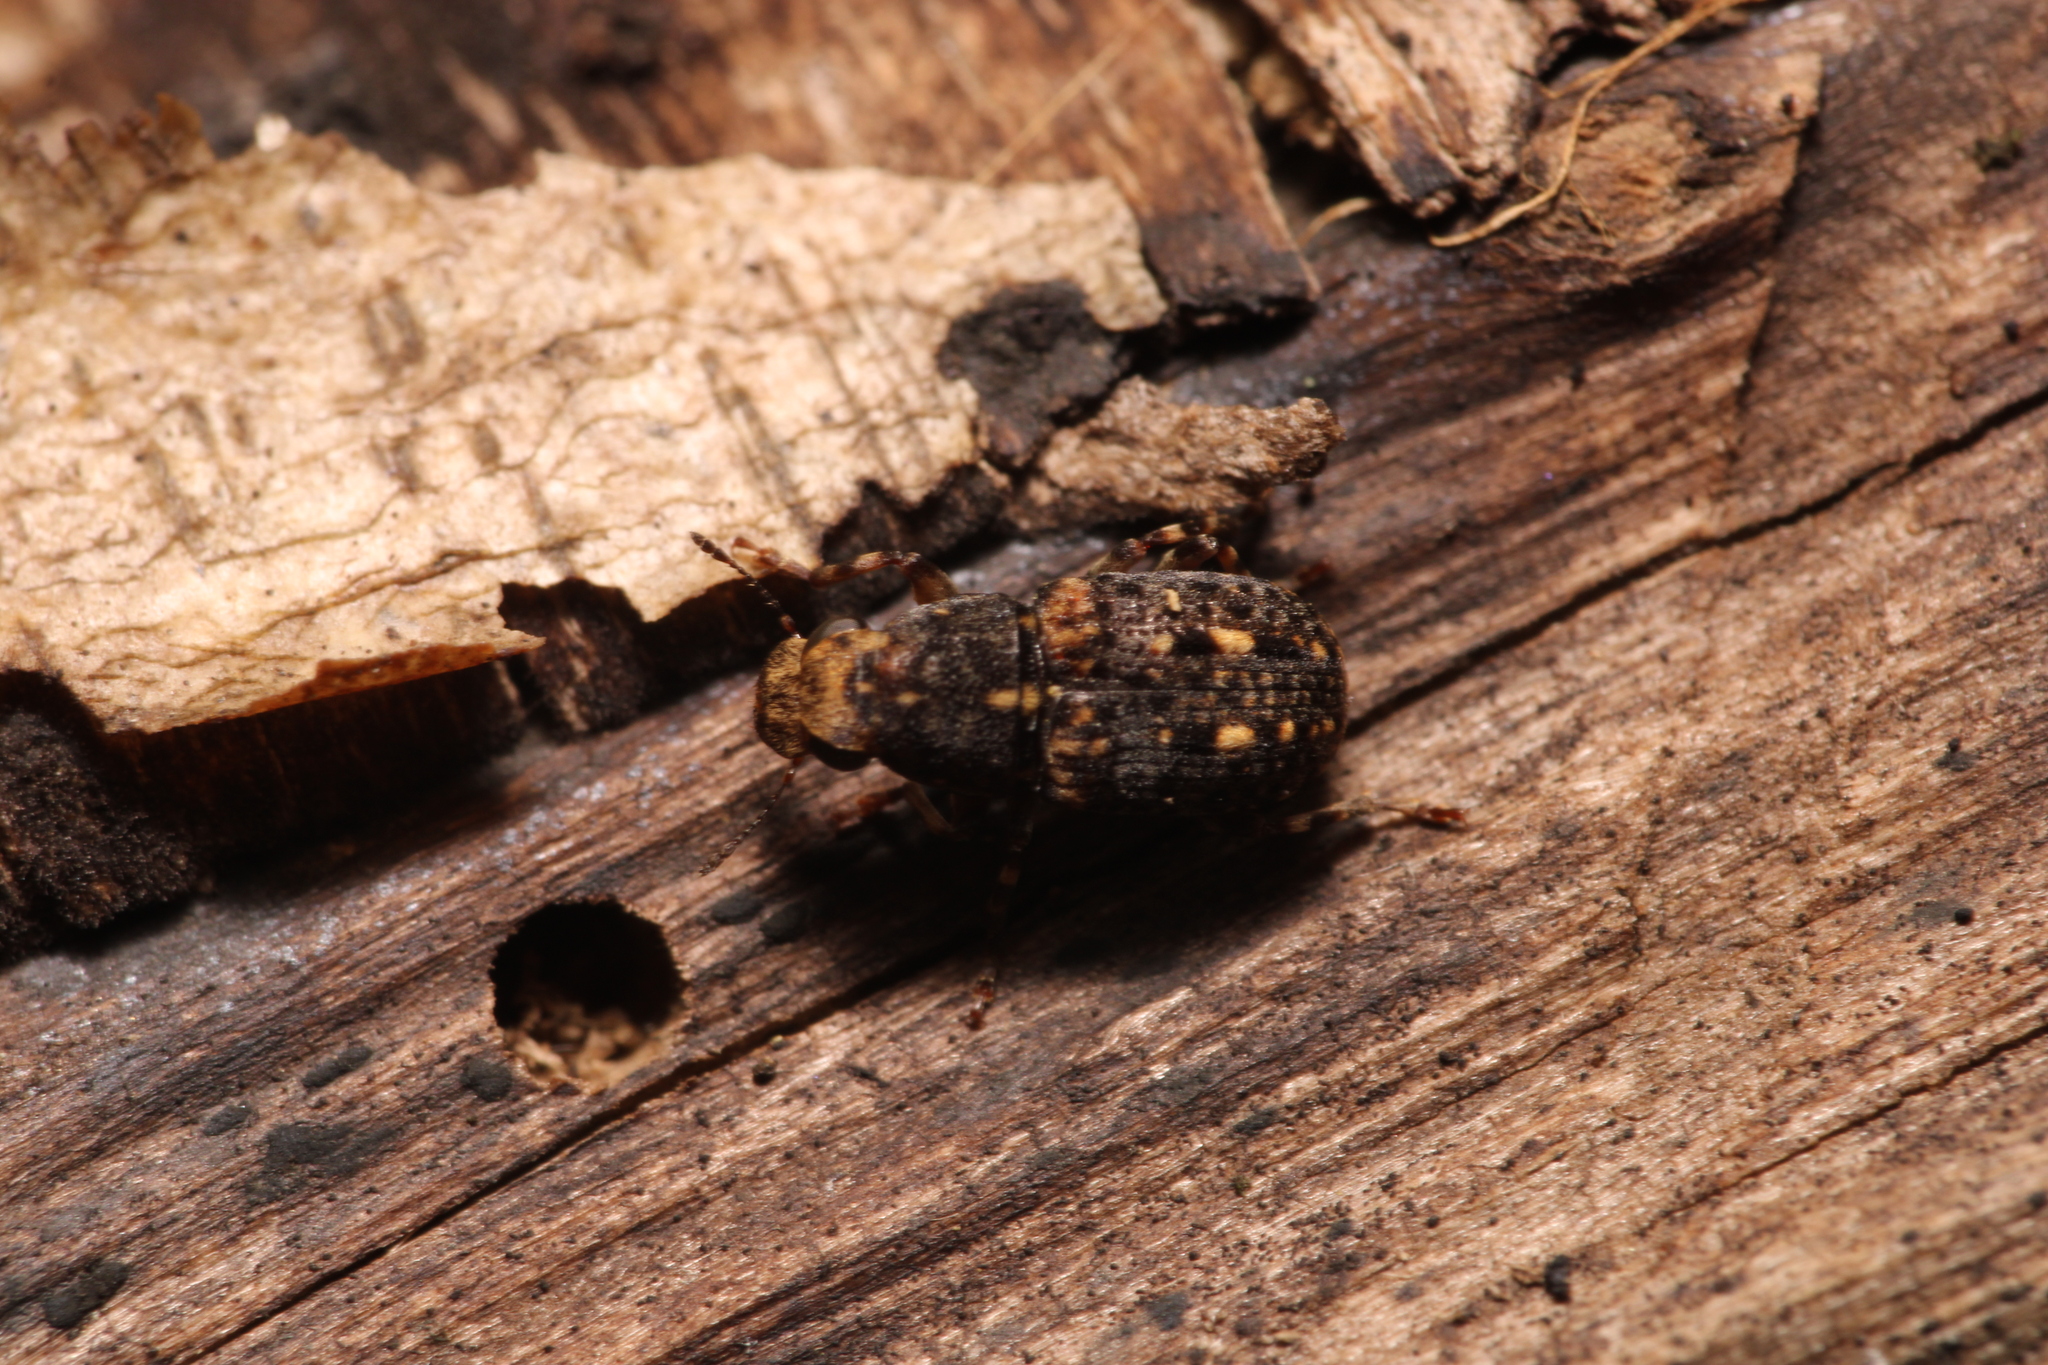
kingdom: Animalia
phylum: Arthropoda
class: Insecta
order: Coleoptera
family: Anthribidae
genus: Ulorhinus
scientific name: Ulorhinus bilineatus
